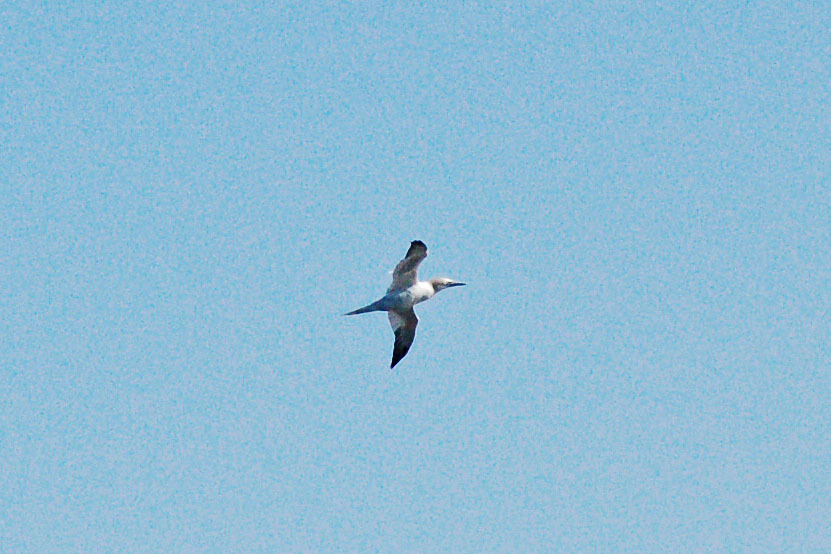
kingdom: Animalia
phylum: Chordata
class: Aves
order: Suliformes
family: Sulidae
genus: Morus
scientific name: Morus bassanus
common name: Northern gannet
